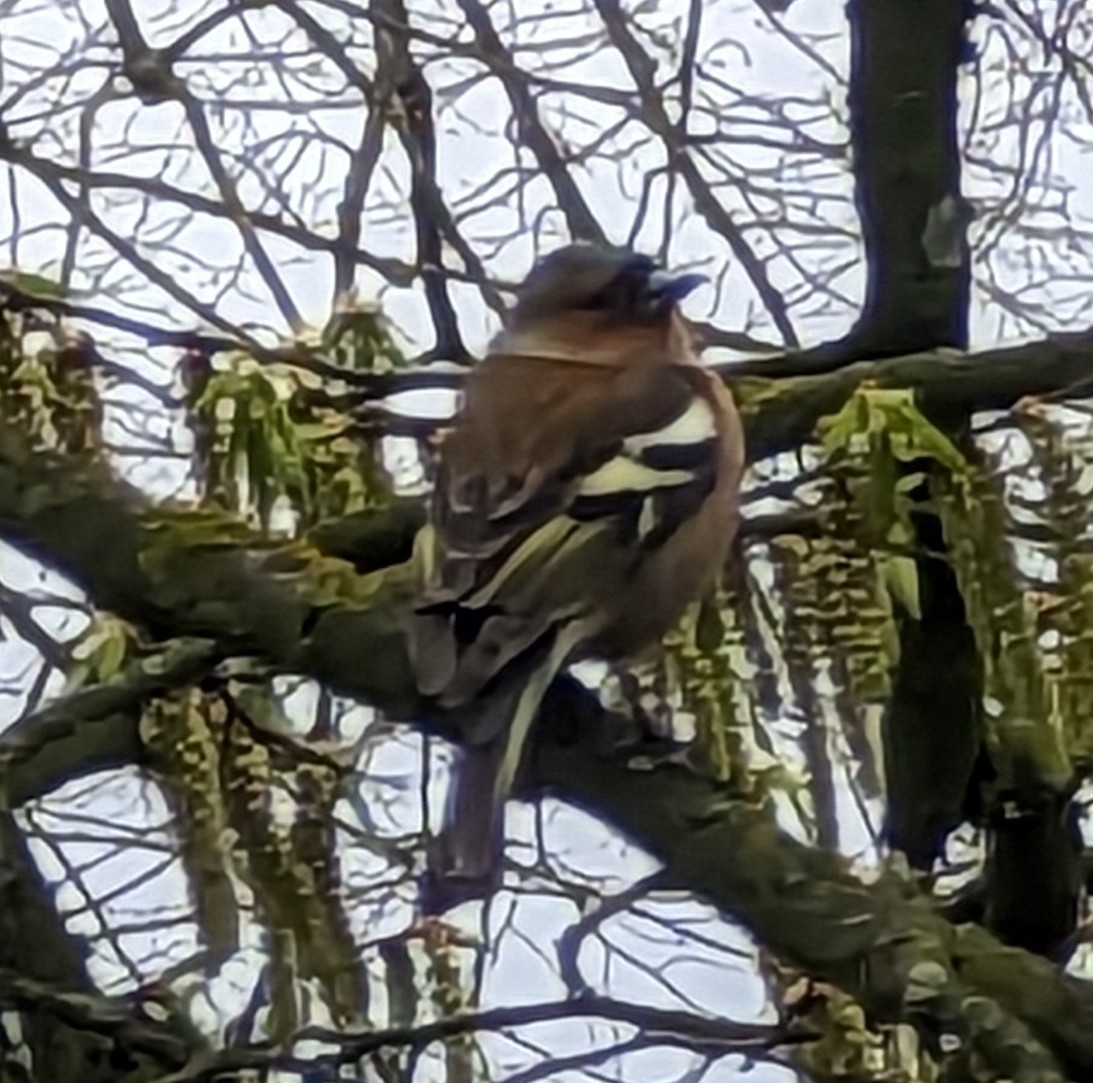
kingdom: Animalia
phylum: Chordata
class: Aves
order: Passeriformes
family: Fringillidae
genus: Fringilla
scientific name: Fringilla coelebs
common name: Common chaffinch
